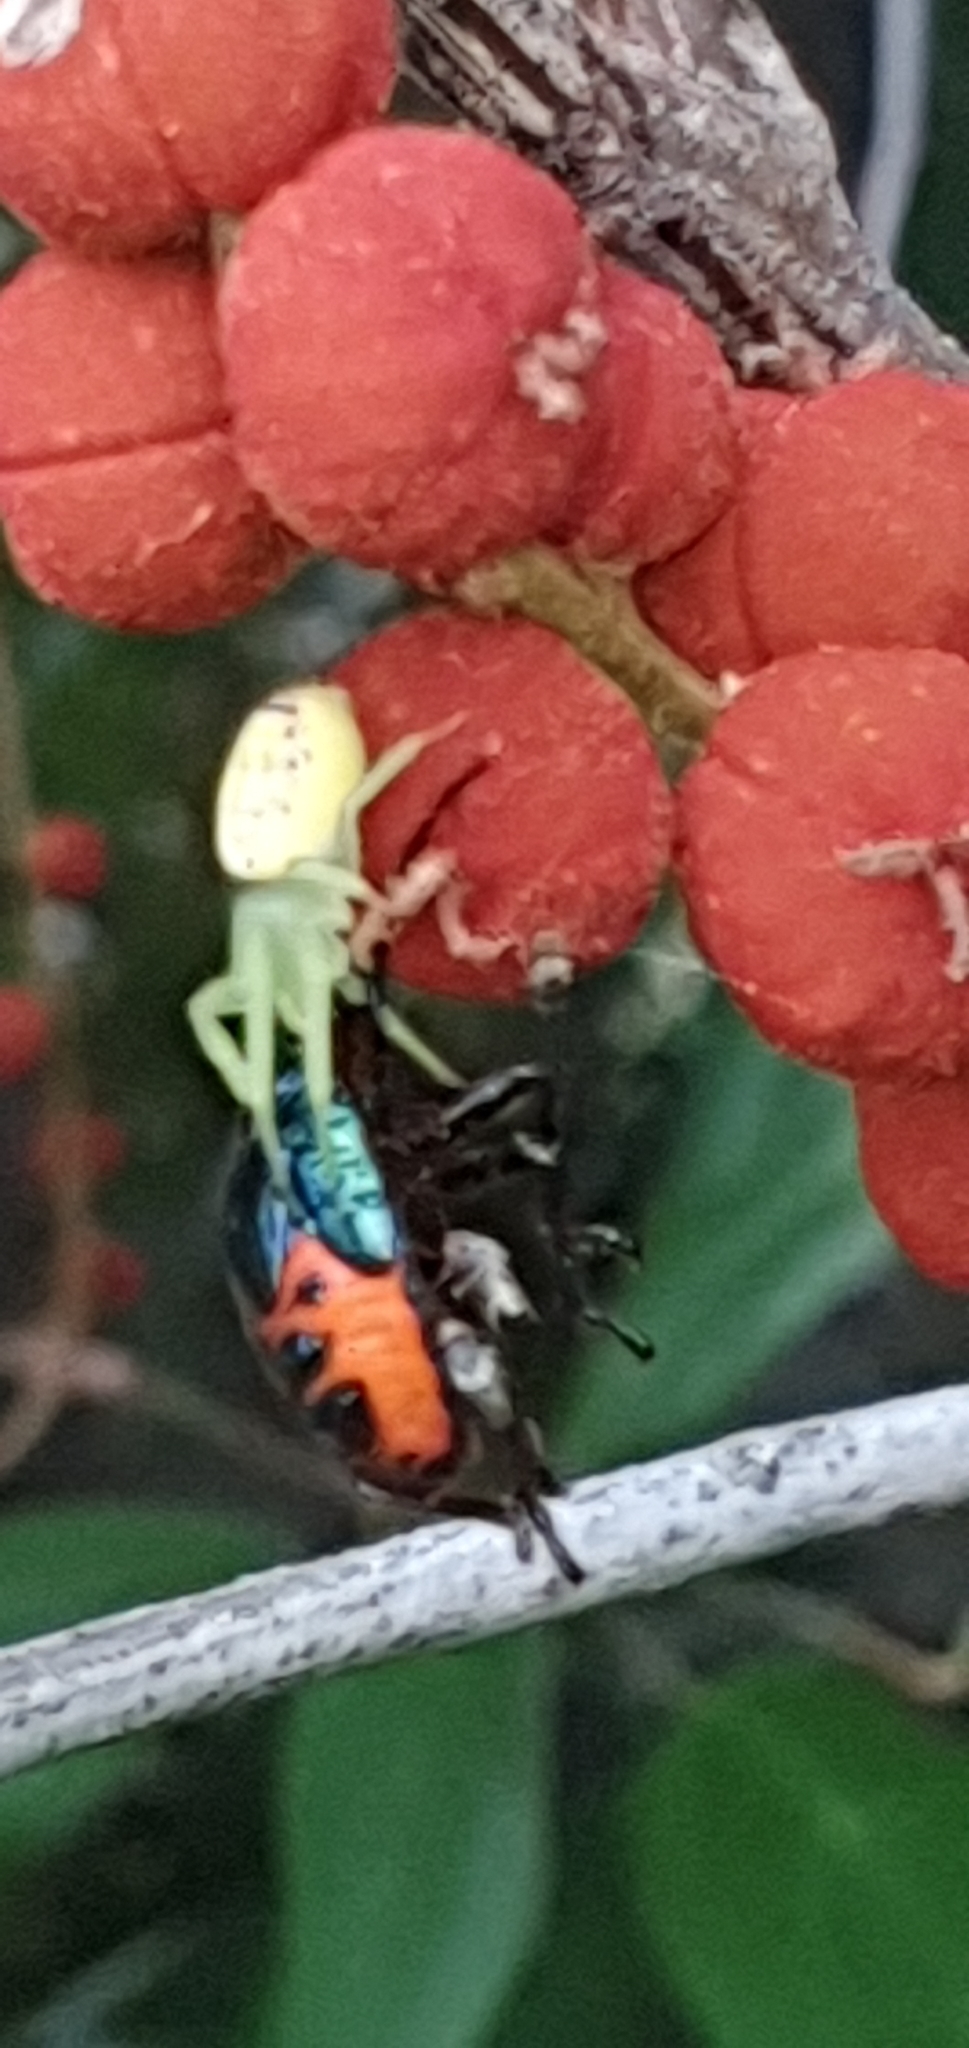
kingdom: Animalia
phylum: Arthropoda
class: Insecta
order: Hemiptera
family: Scutelleridae
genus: Cantao
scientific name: Cantao
